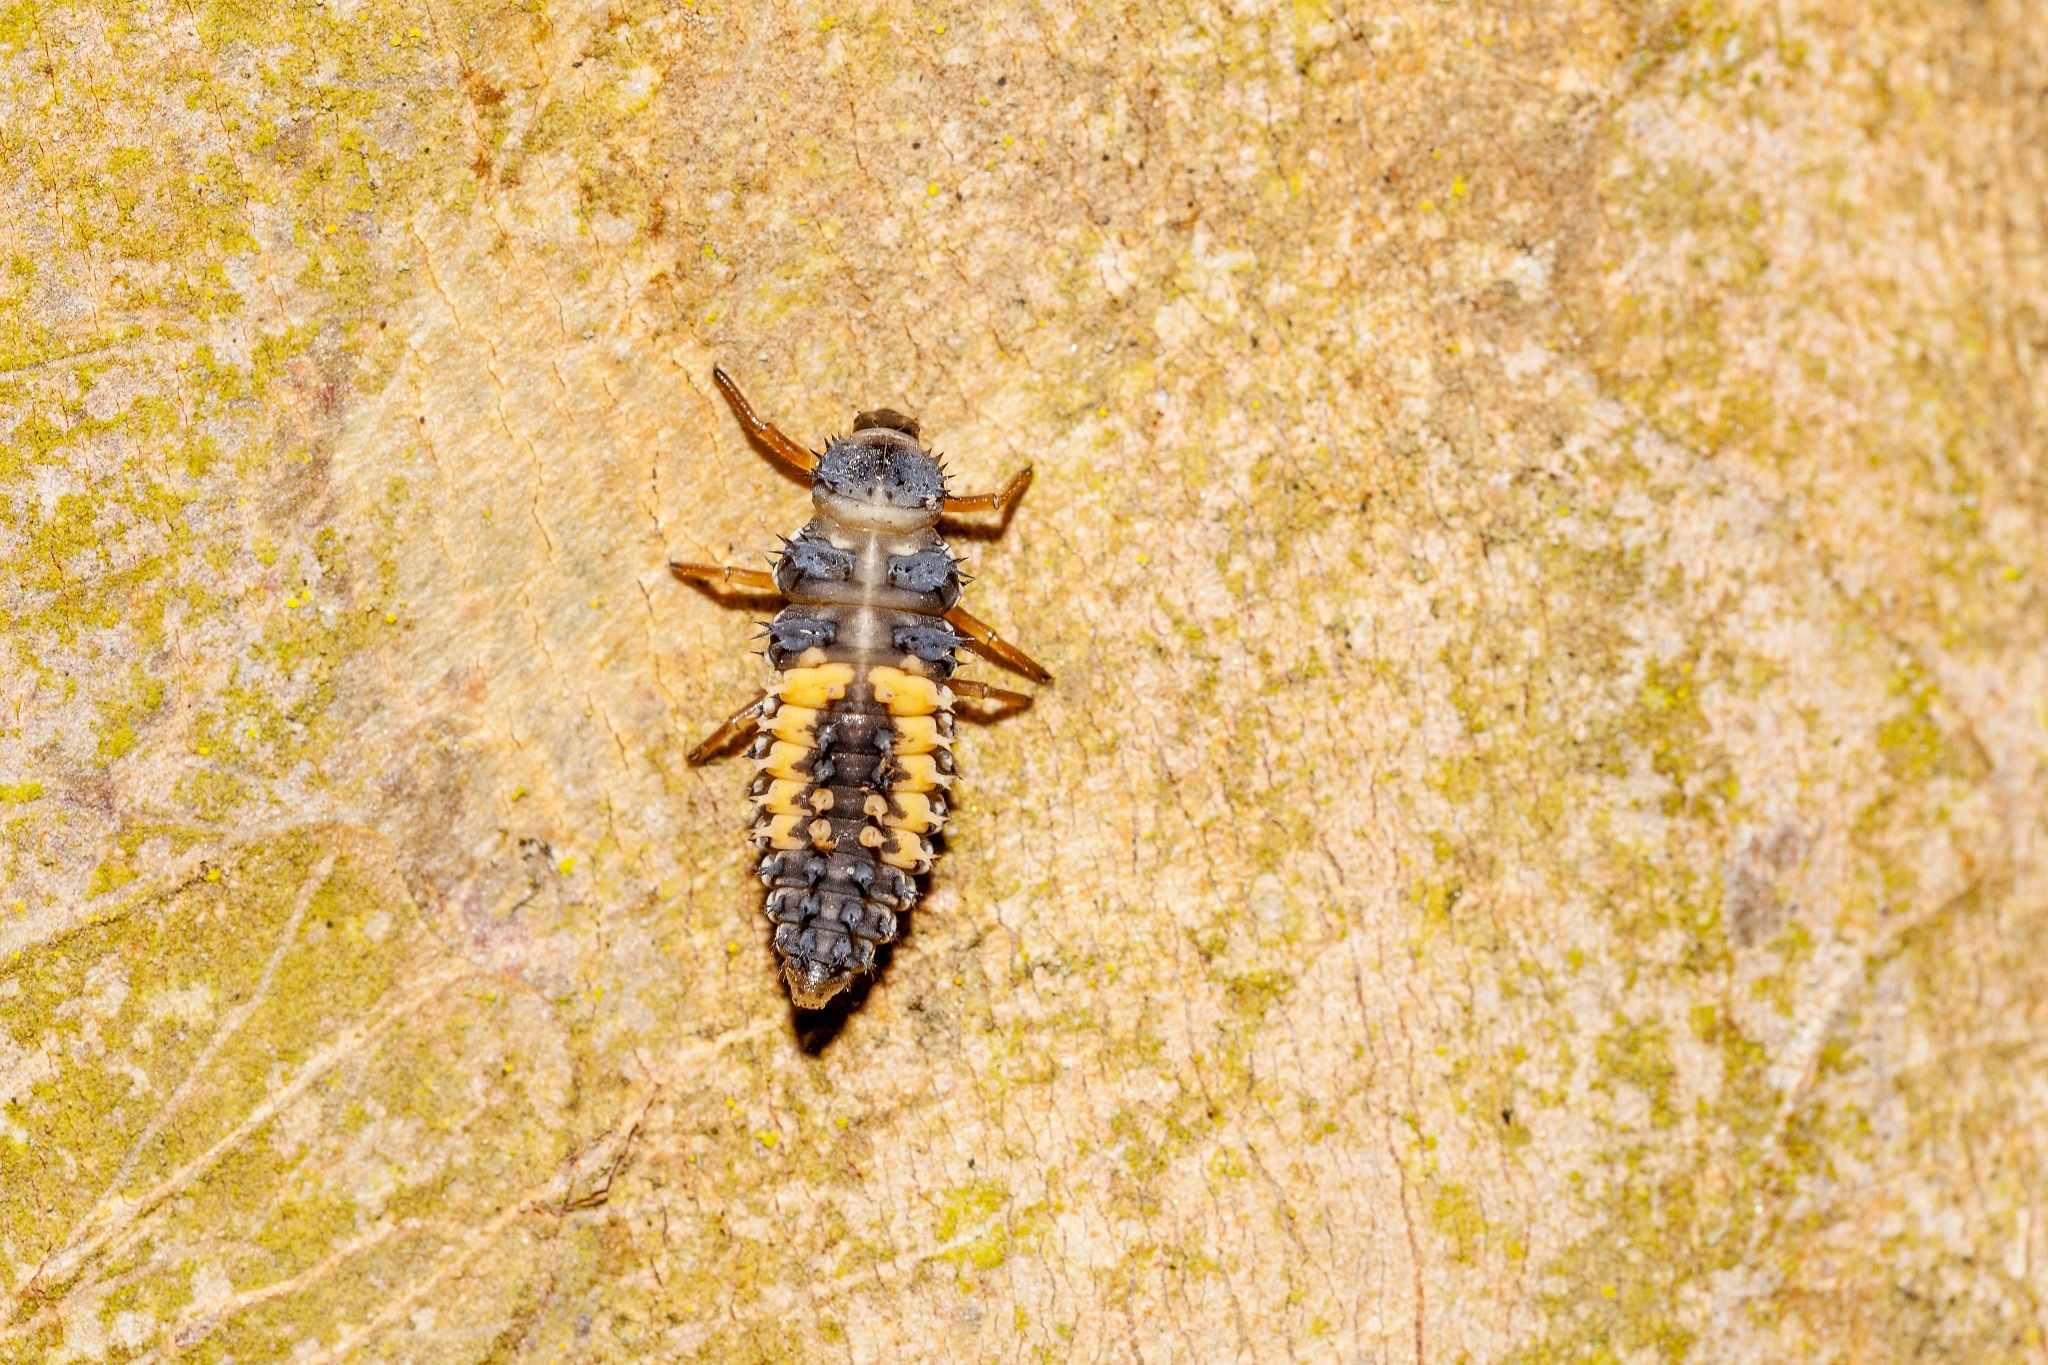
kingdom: Animalia
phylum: Arthropoda
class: Insecta
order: Coleoptera
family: Coccinellidae
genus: Harmonia
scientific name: Harmonia axyridis
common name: Harlequin ladybird
